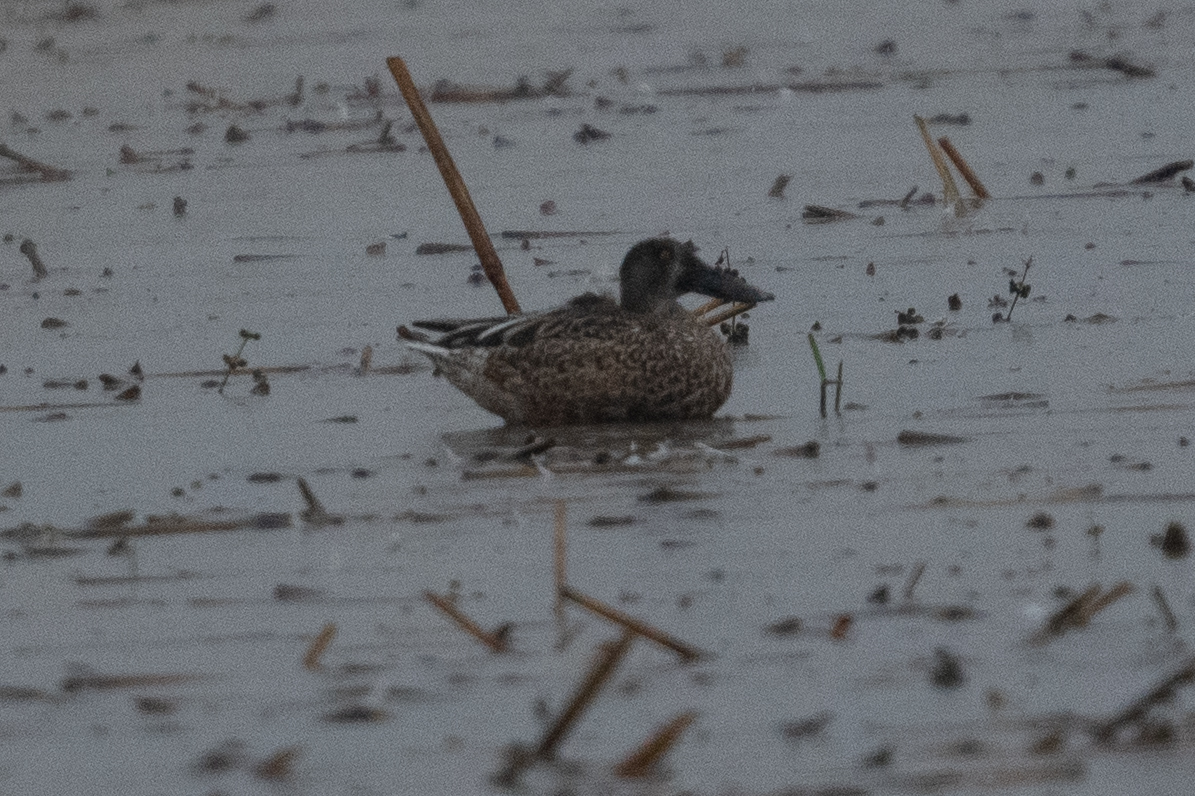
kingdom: Animalia
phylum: Chordata
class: Aves
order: Anseriformes
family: Anatidae
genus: Spatula
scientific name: Spatula clypeata
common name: Northern shoveler
